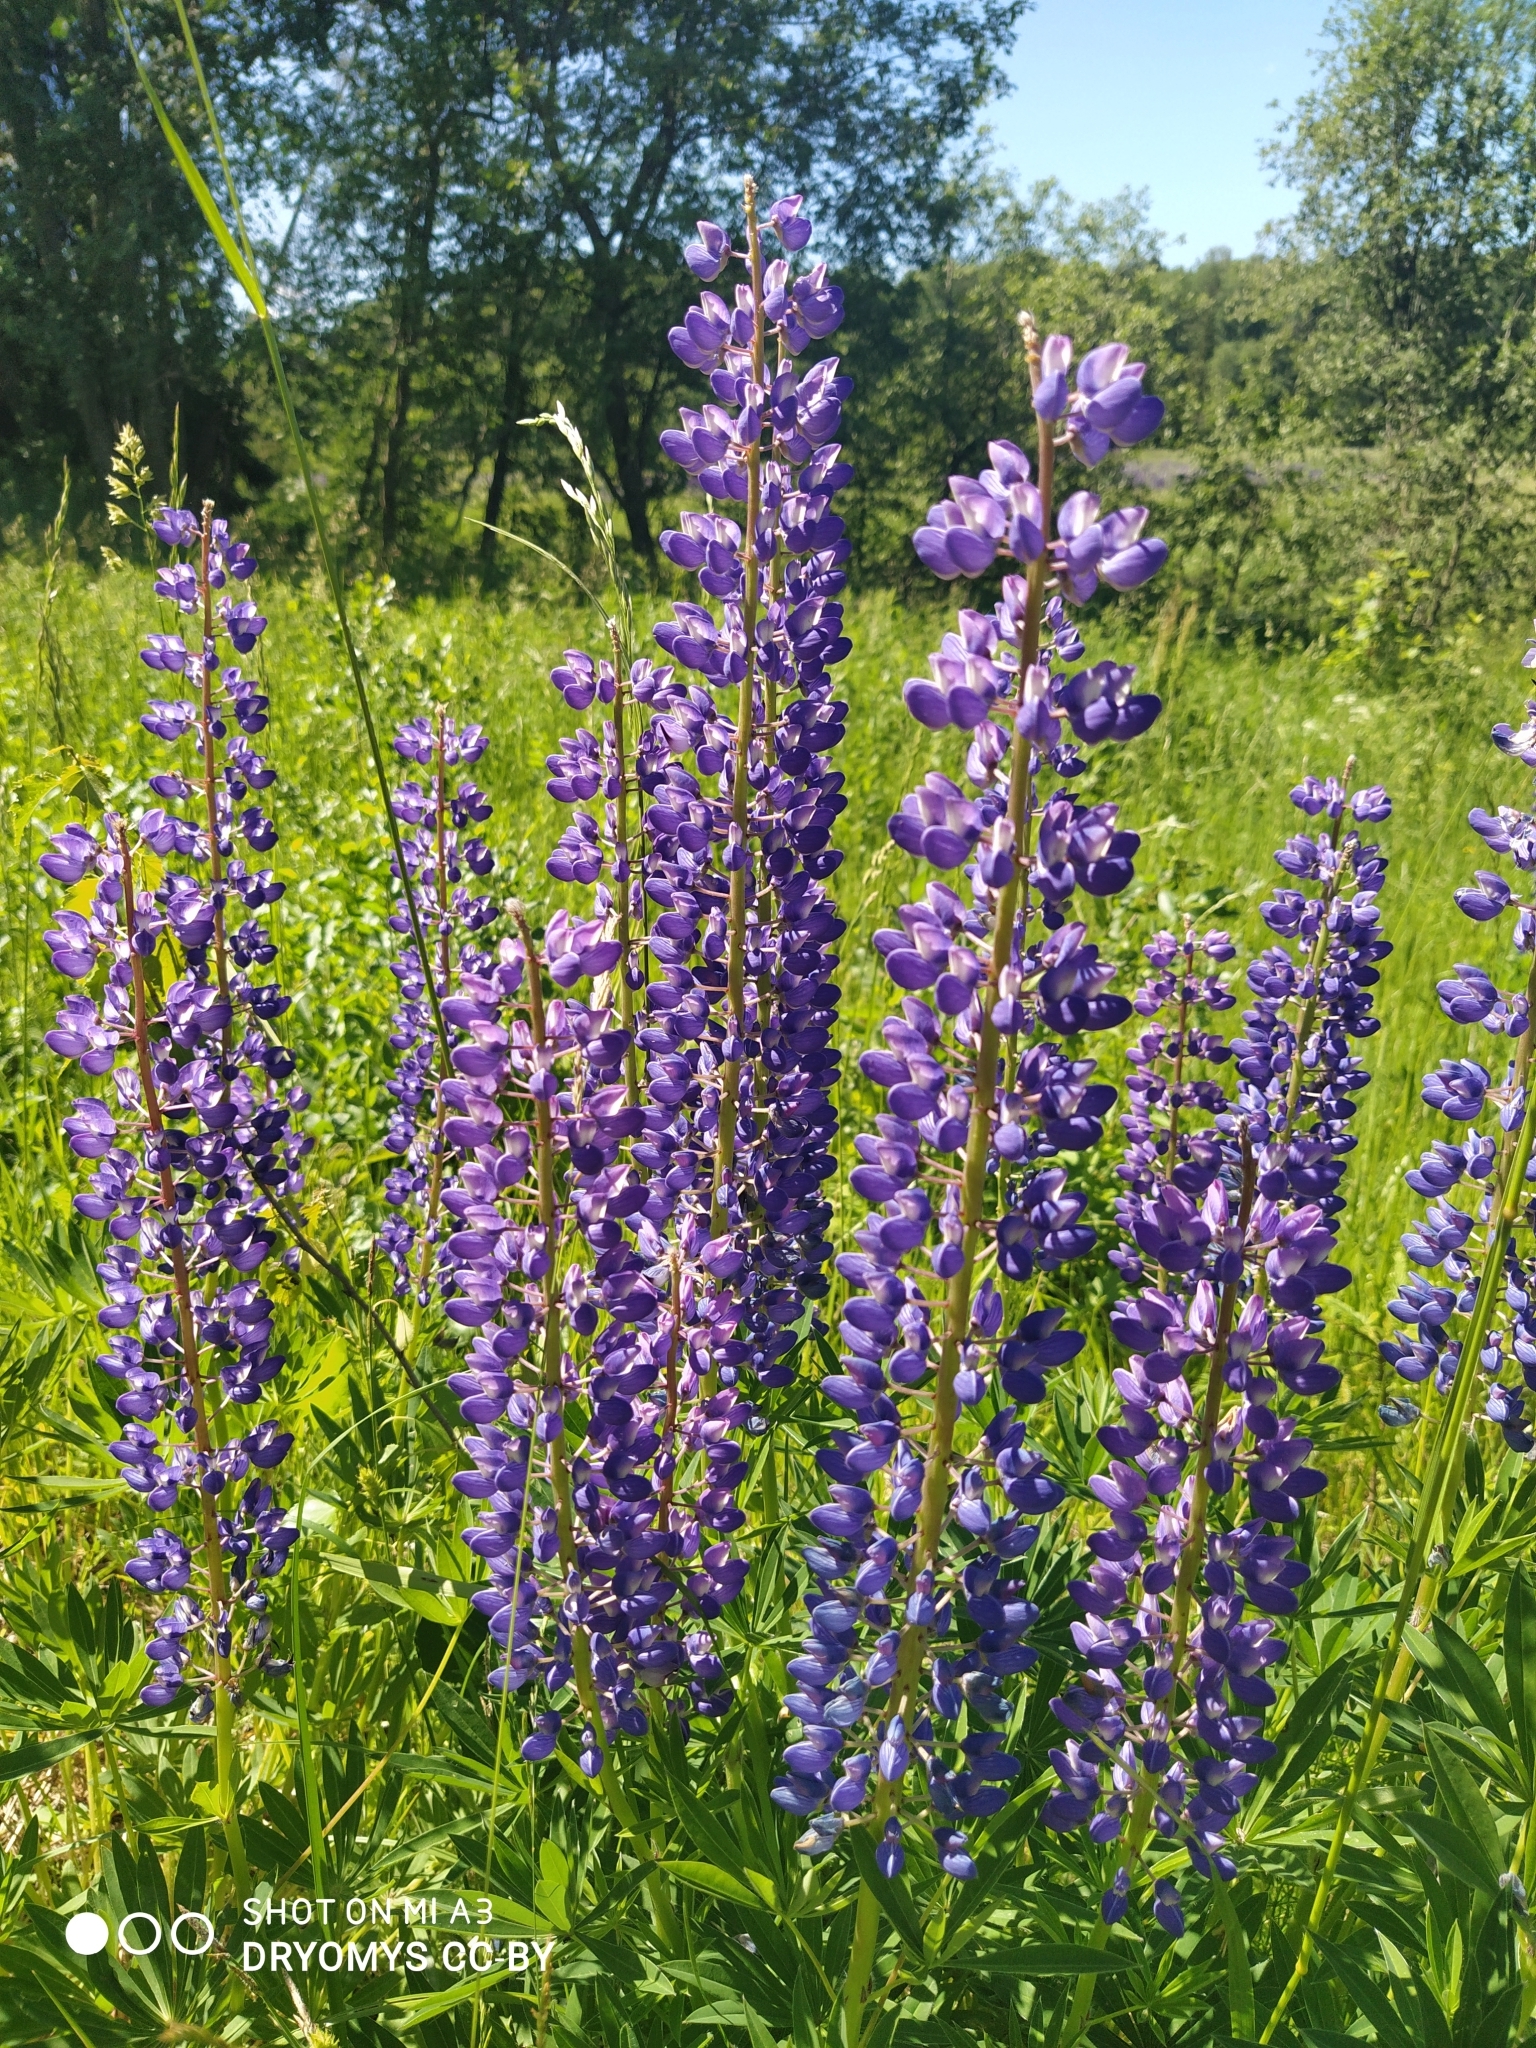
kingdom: Plantae
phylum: Tracheophyta
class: Magnoliopsida
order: Fabales
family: Fabaceae
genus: Lupinus
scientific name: Lupinus polyphyllus
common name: Garden lupin
